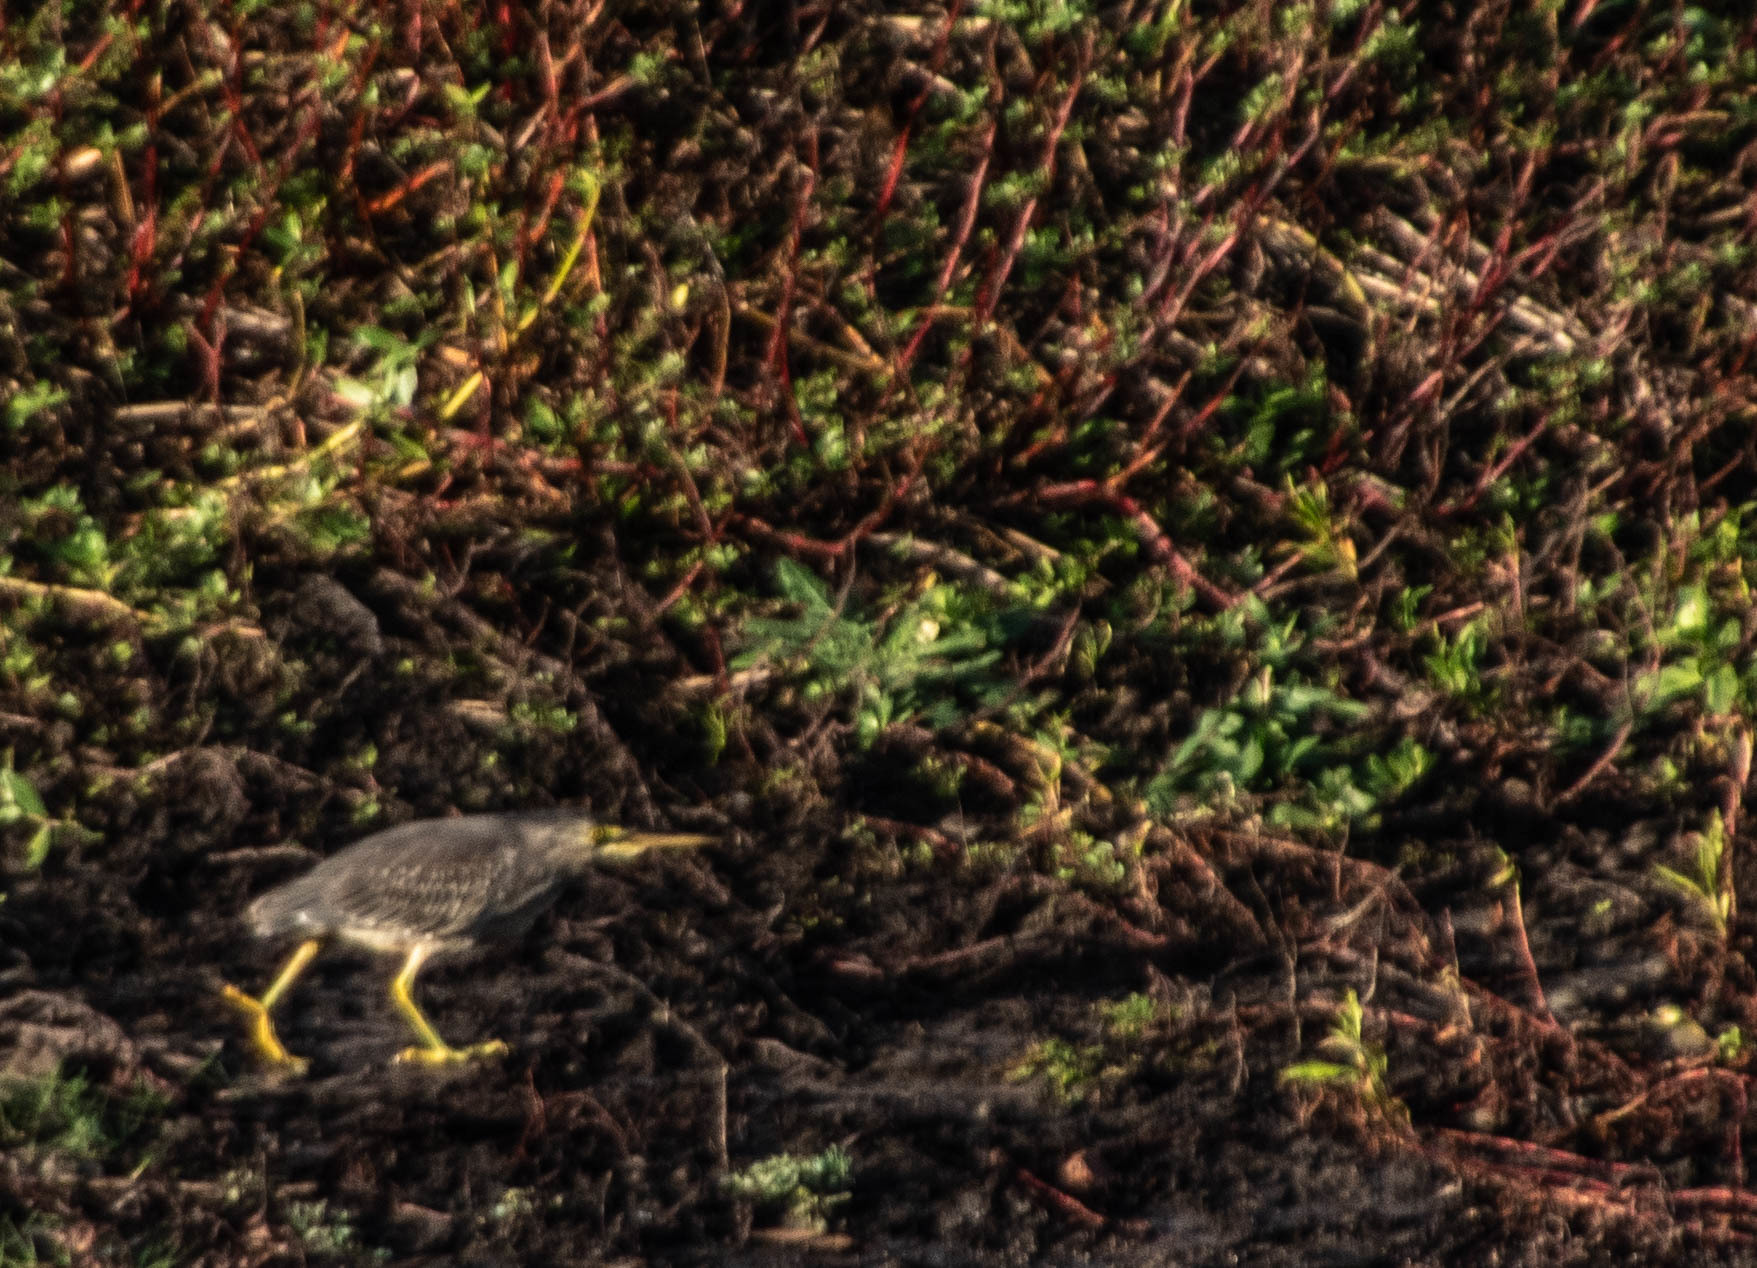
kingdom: Animalia
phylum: Chordata
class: Aves
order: Pelecaniformes
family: Ardeidae
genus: Butorides
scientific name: Butorides striata
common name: Striated heron
